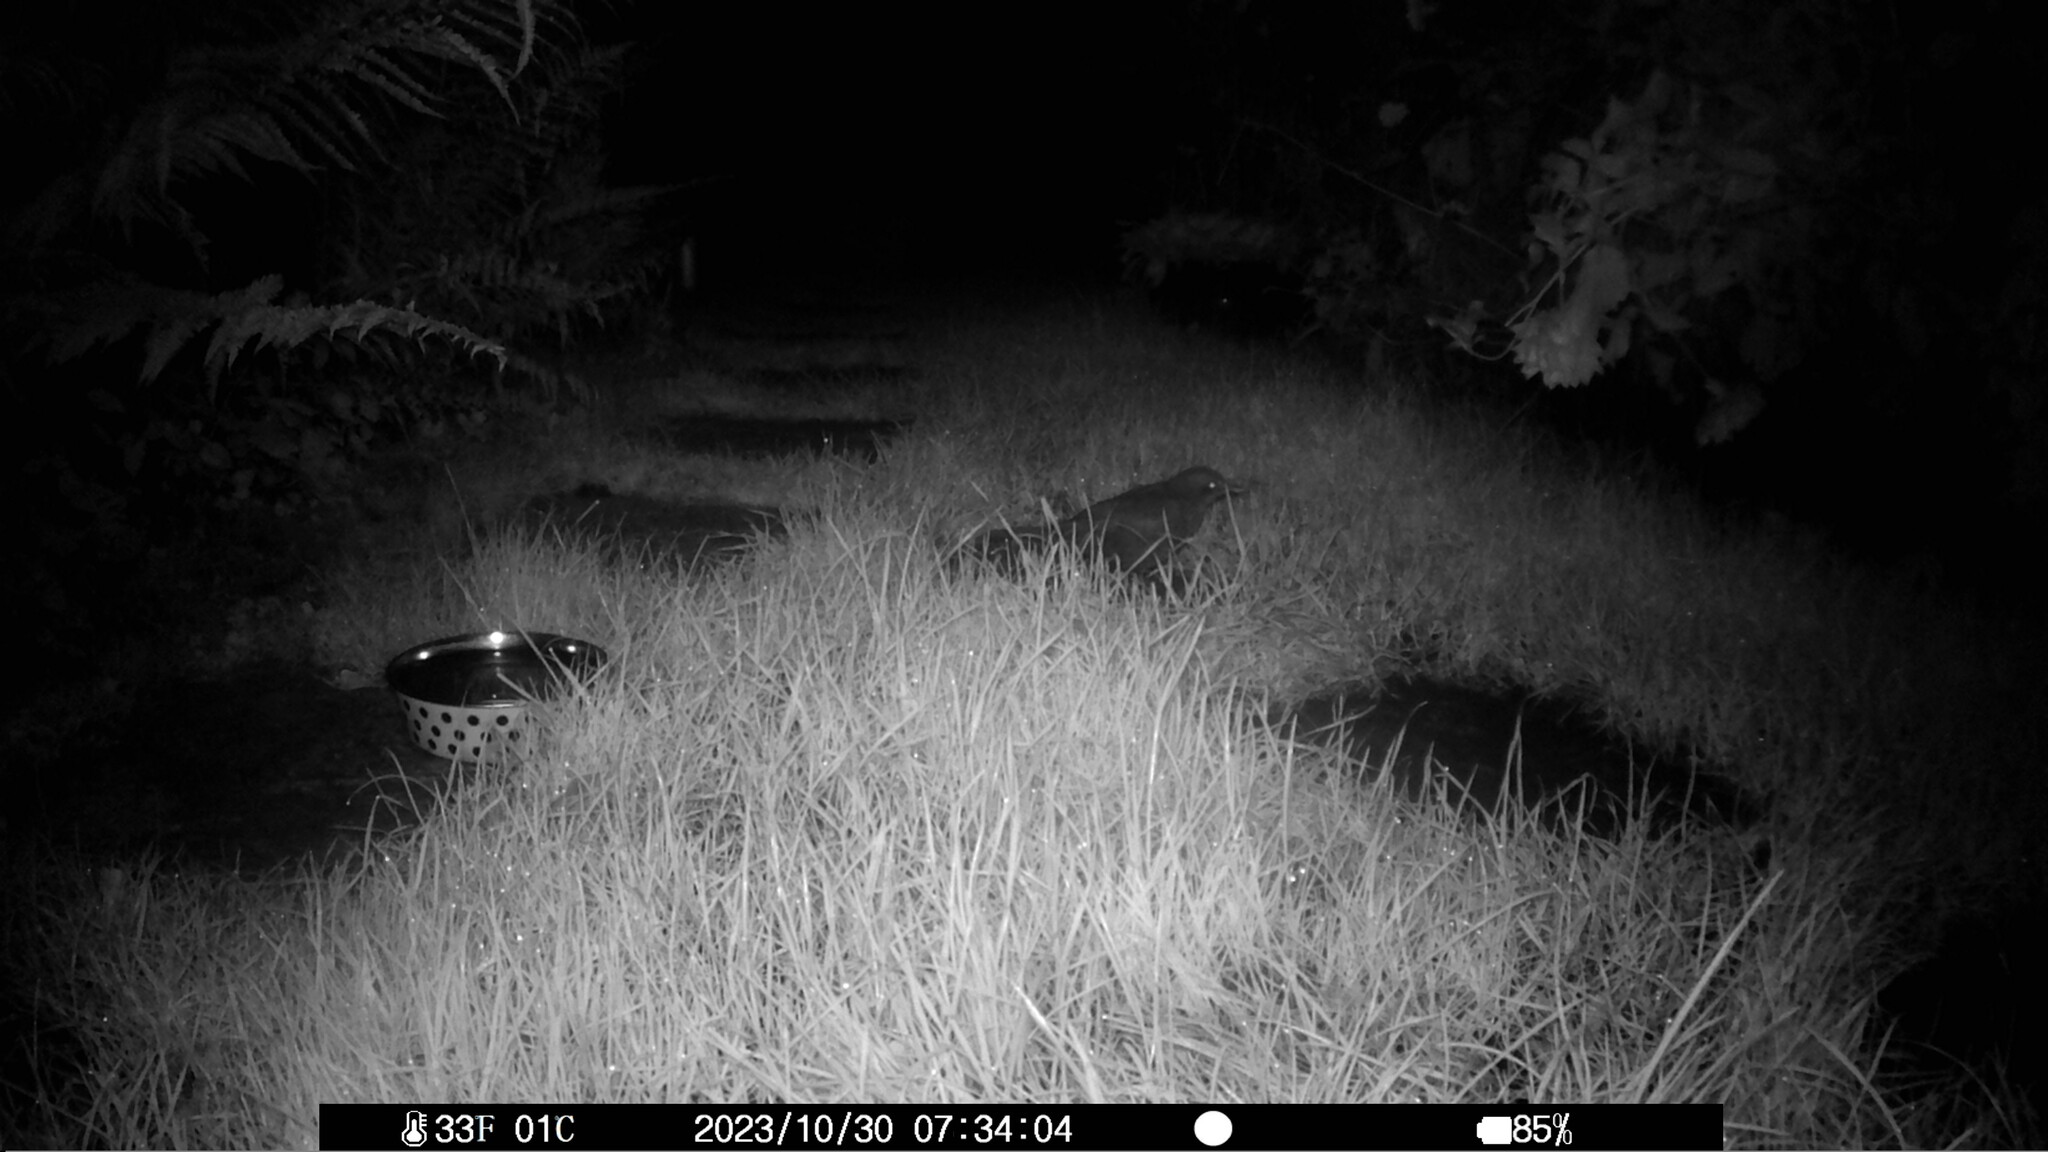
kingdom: Animalia
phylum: Chordata
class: Aves
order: Passeriformes
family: Turdidae
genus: Turdus
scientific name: Turdus merula
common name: Common blackbird
